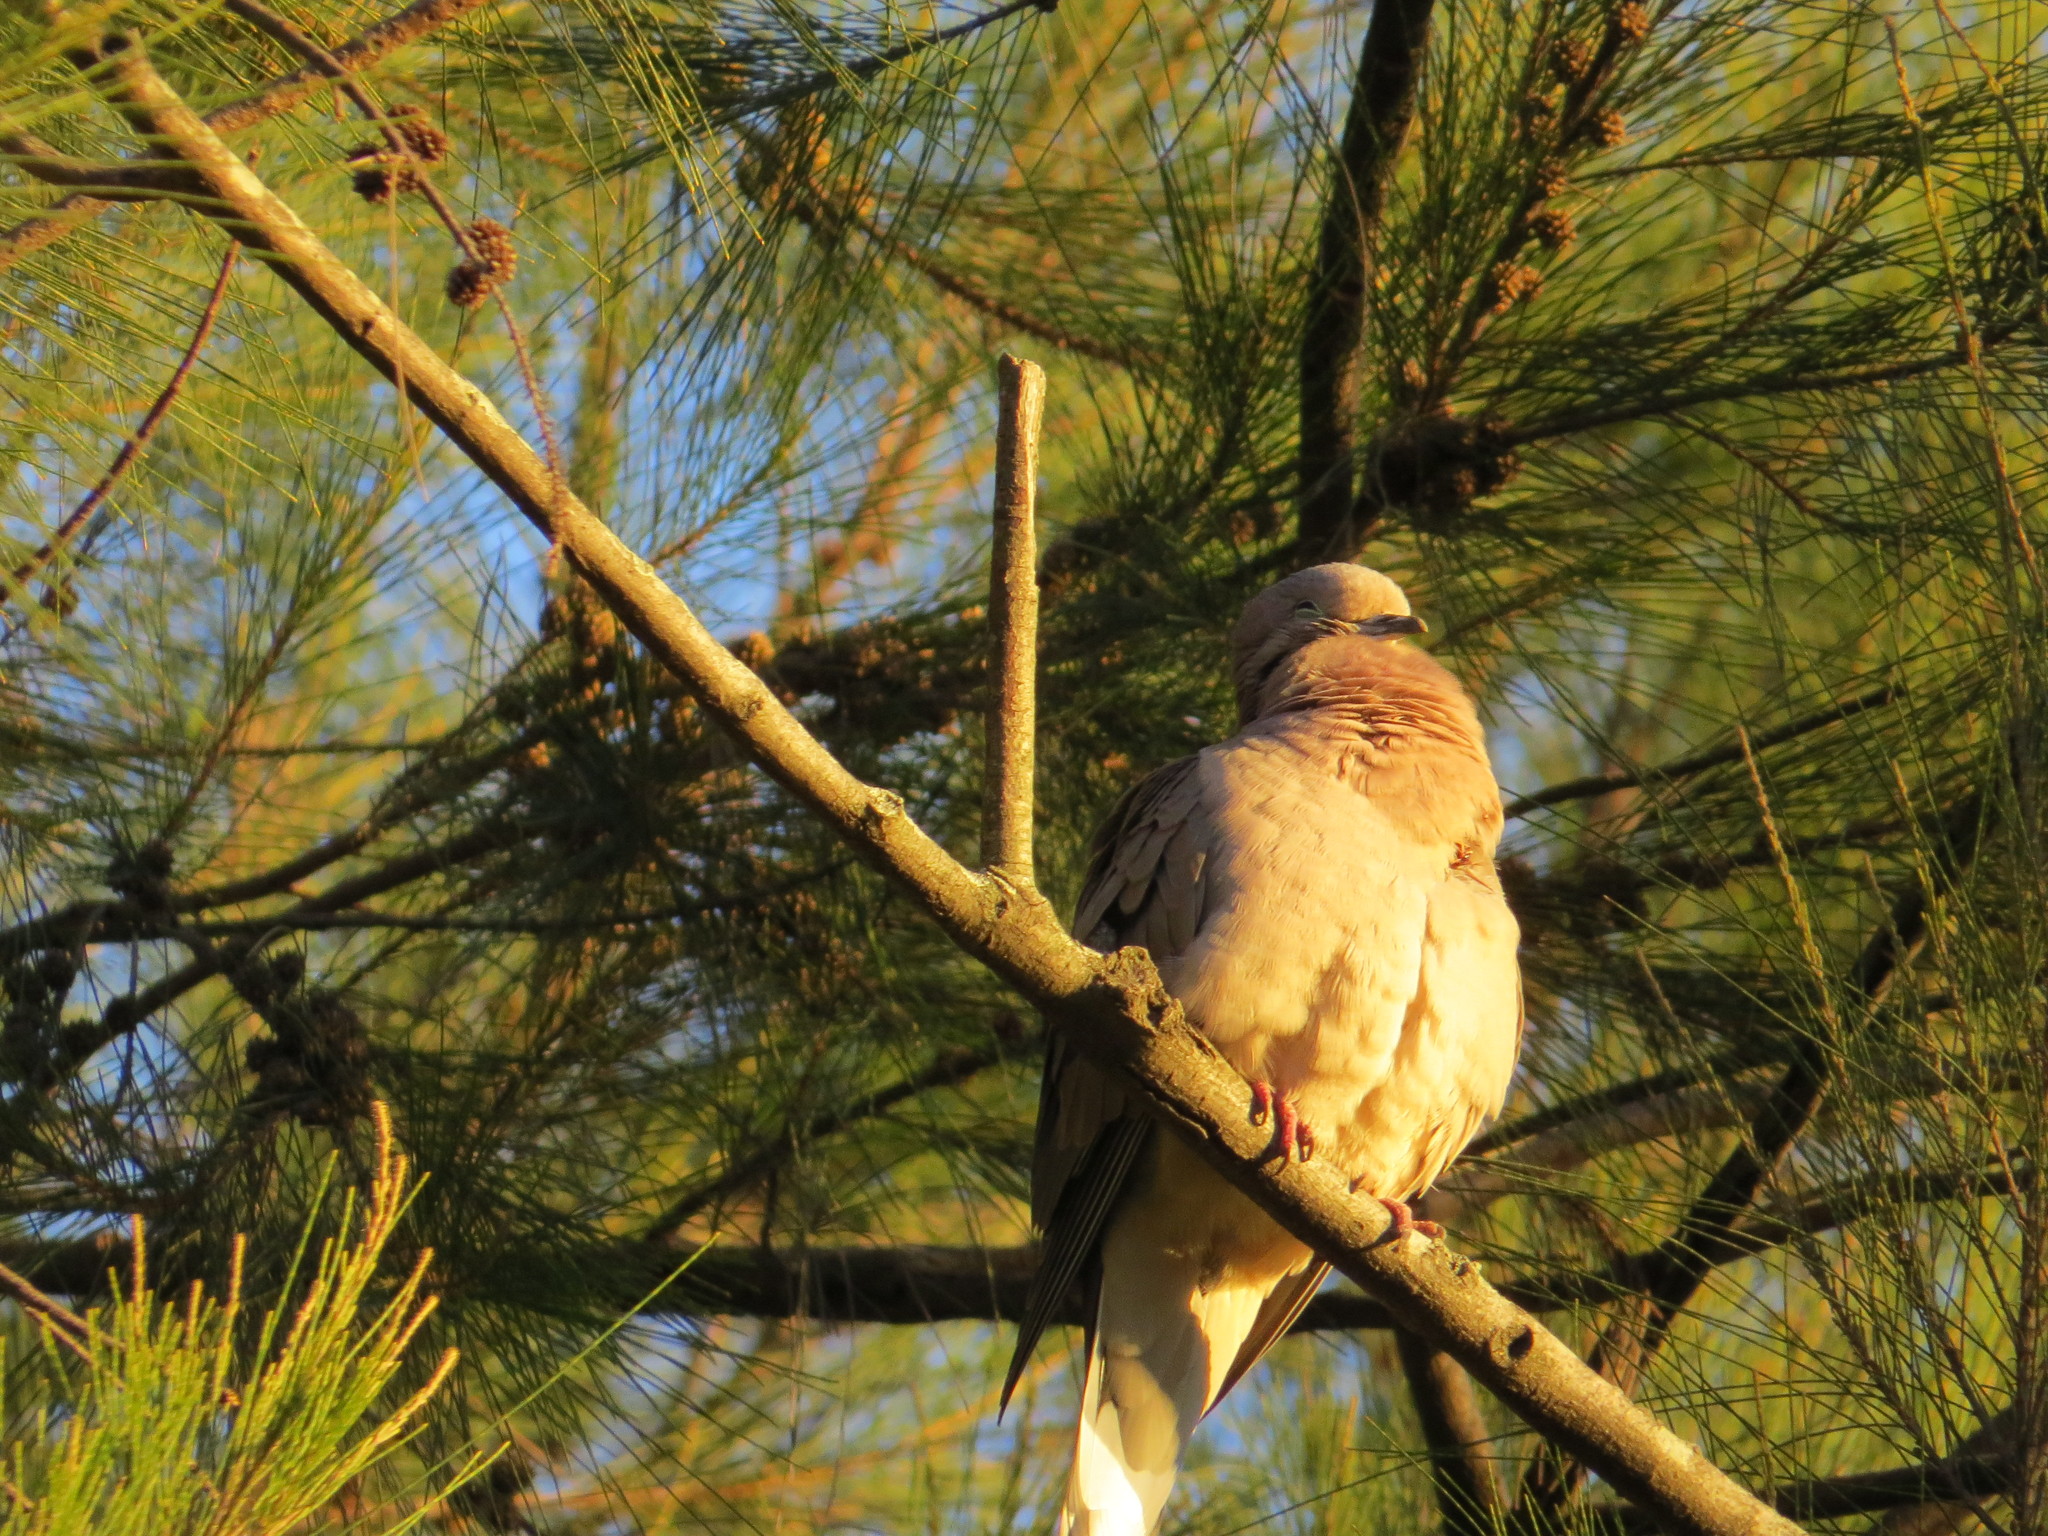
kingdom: Animalia
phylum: Chordata
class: Aves
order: Columbiformes
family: Columbidae
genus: Zenaida
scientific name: Zenaida auriculata
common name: Eared dove
